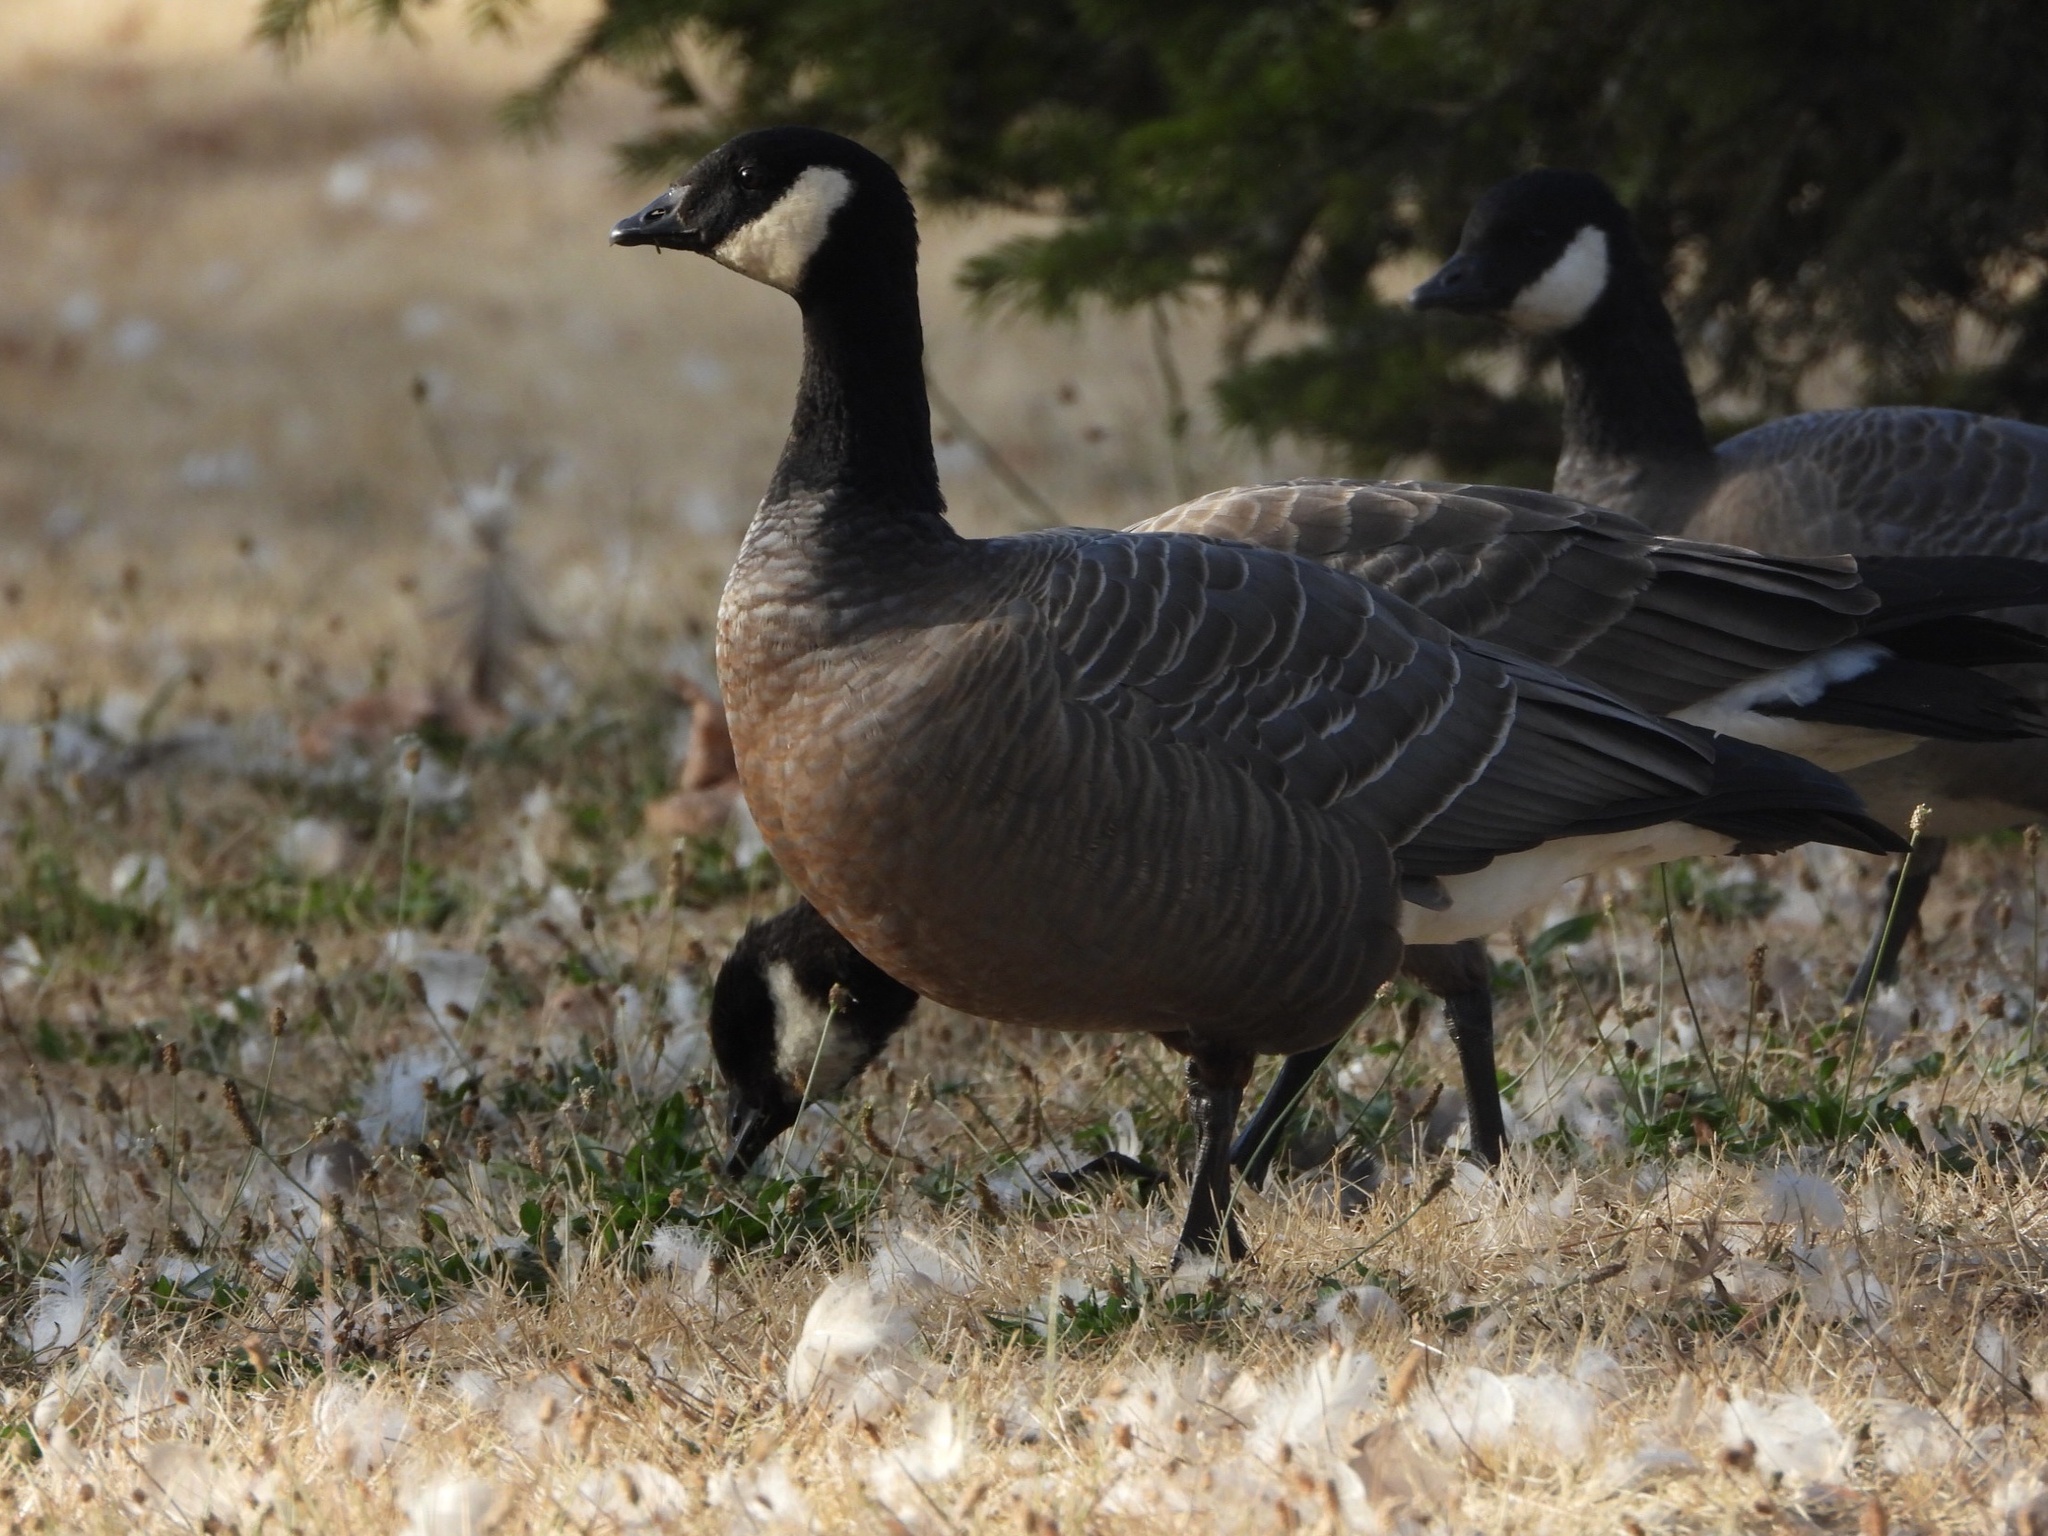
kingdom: Animalia
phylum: Chordata
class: Aves
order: Anseriformes
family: Anatidae
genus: Branta
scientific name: Branta hutchinsii
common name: Cackling goose
